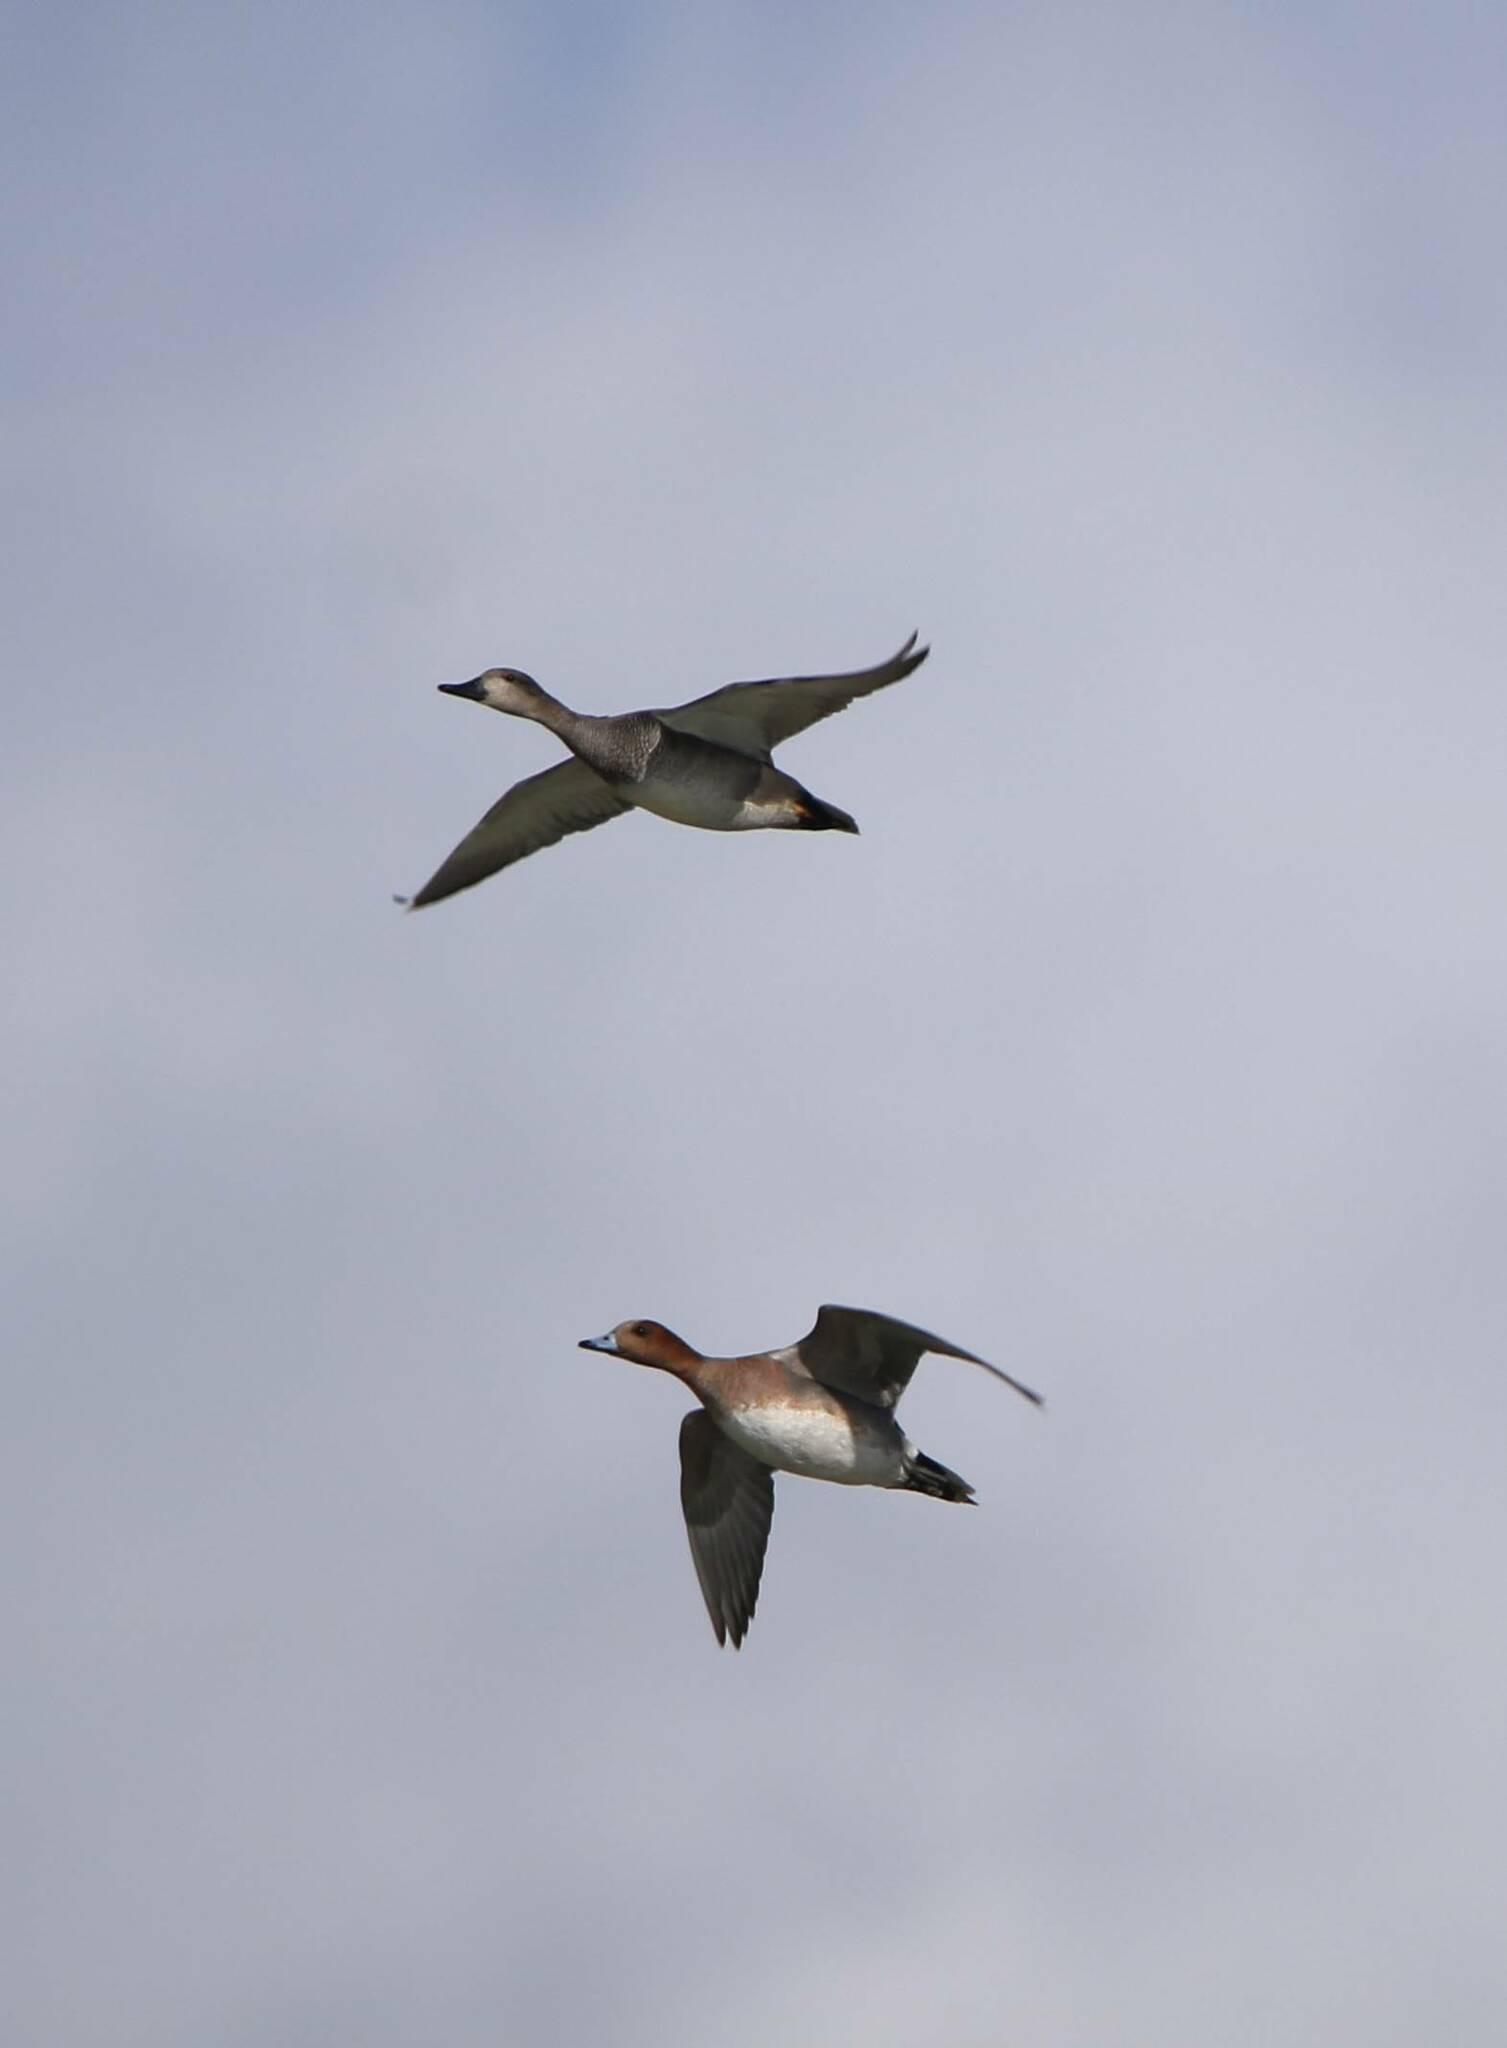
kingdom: Animalia
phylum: Chordata
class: Aves
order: Anseriformes
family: Anatidae
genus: Mareca
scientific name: Mareca penelope
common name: Eurasian wigeon
